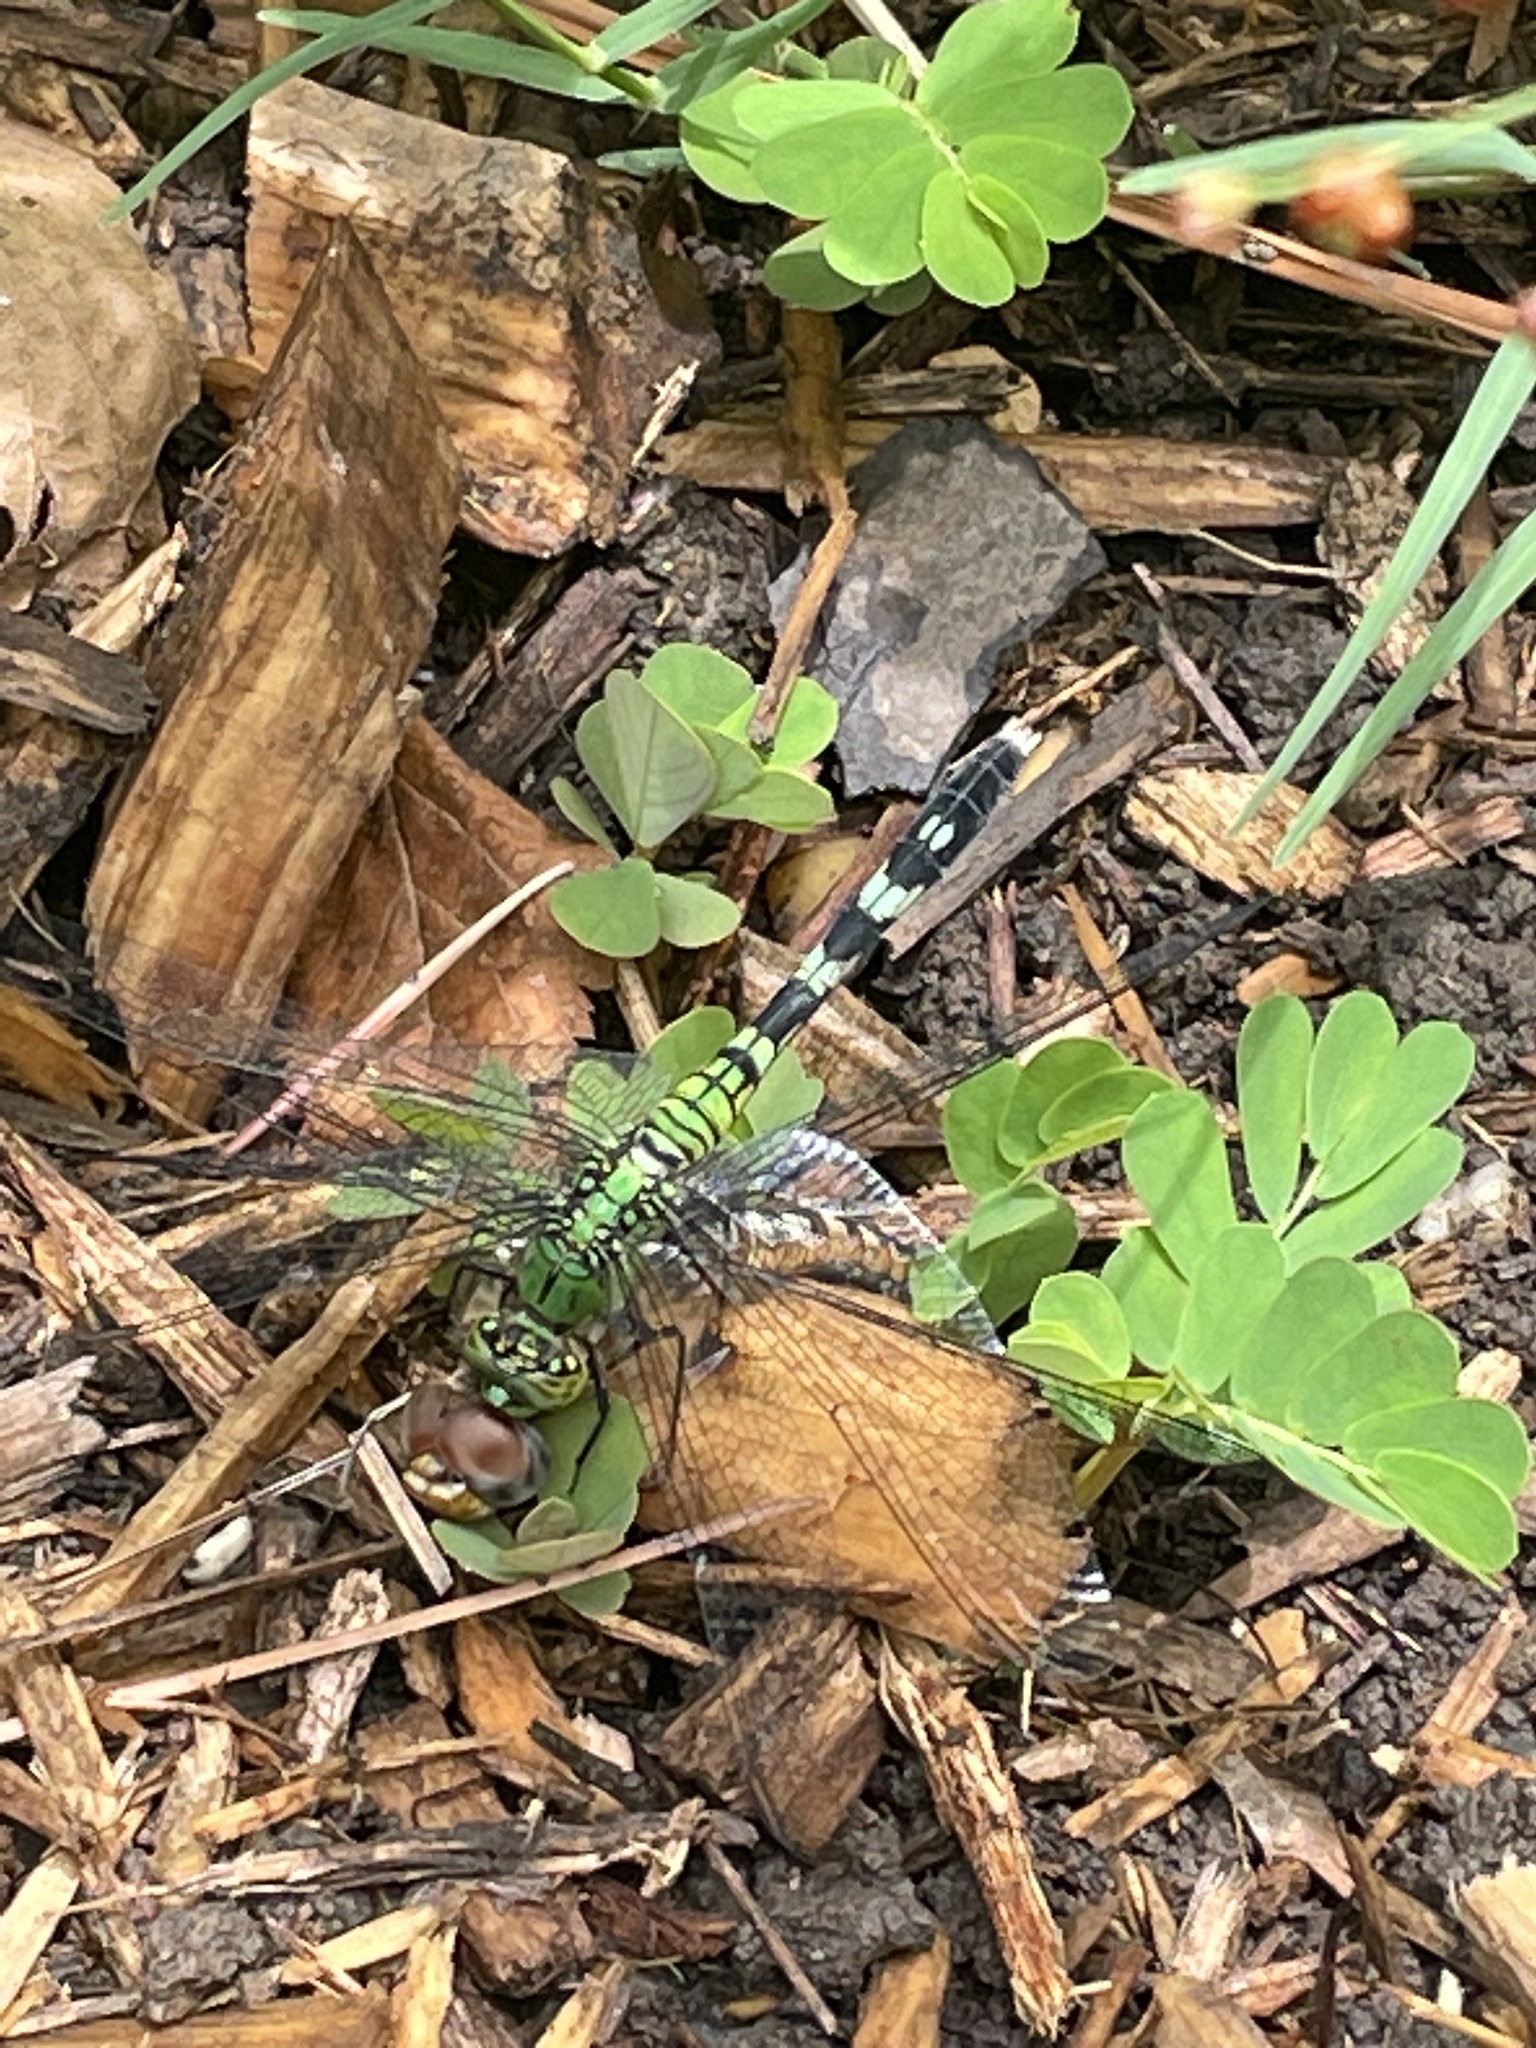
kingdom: Animalia
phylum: Arthropoda
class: Insecta
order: Odonata
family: Libellulidae
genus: Erythemis
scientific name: Erythemis simplicicollis
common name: Eastern pondhawk
